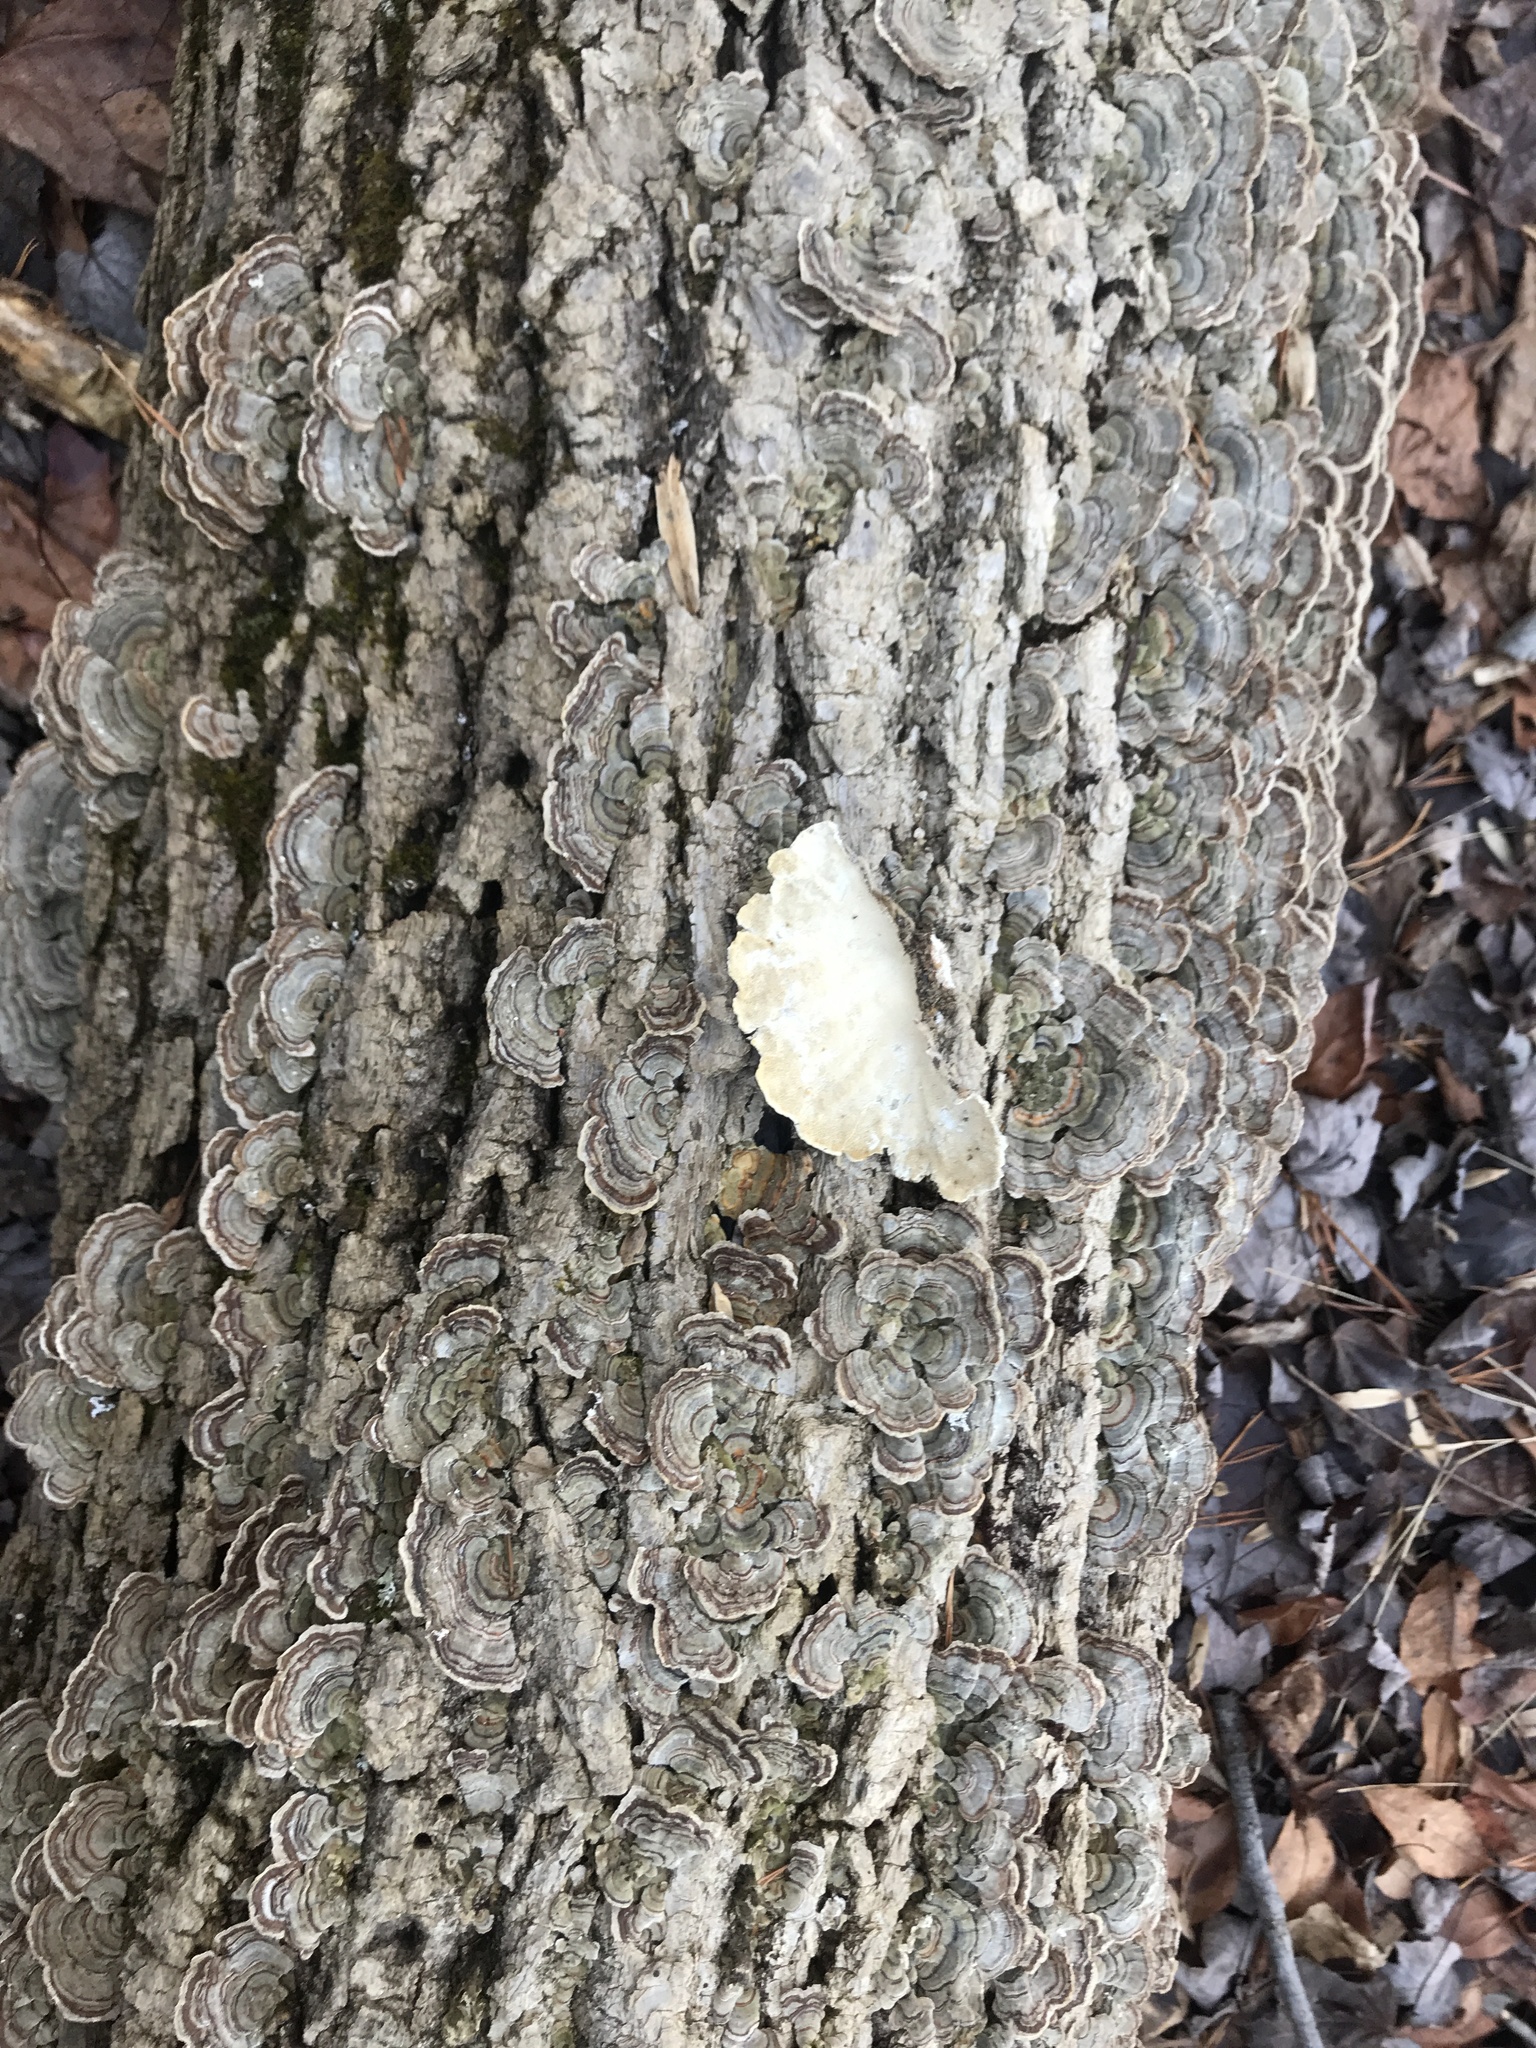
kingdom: Fungi
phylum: Basidiomycota
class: Agaricomycetes
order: Polyporales
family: Polyporaceae
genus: Trametes
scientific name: Trametes versicolor
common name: Turkeytail
